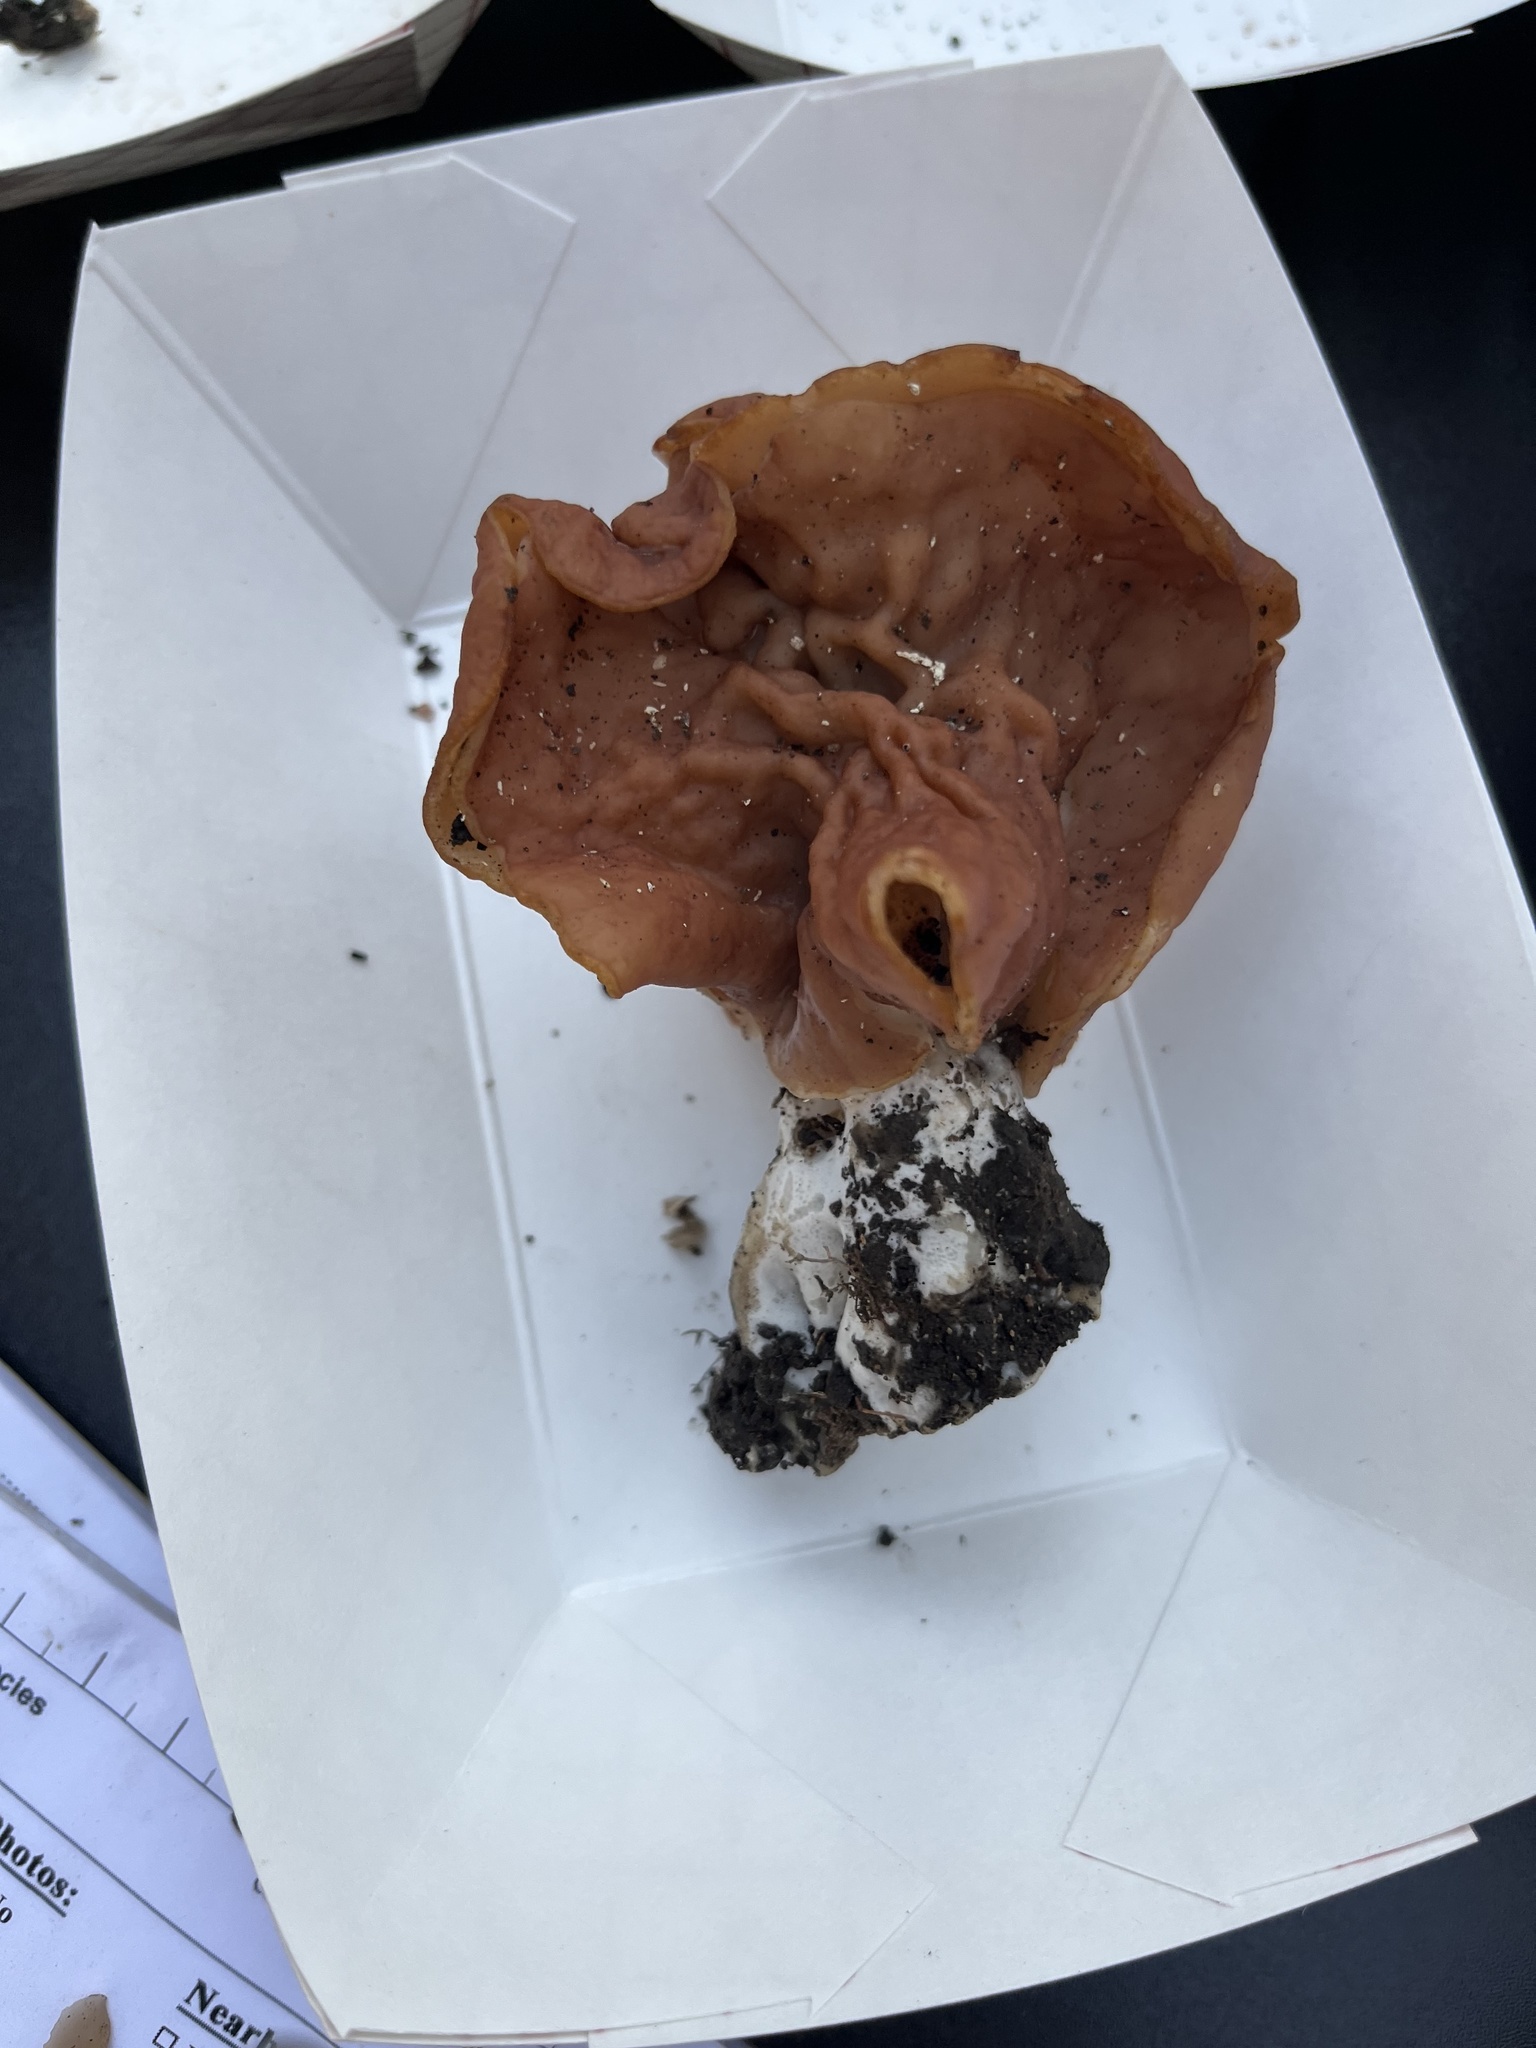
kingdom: Fungi
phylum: Ascomycota
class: Pezizomycetes
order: Pezizales
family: Discinaceae
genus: Discina
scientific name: Discina brunnea
